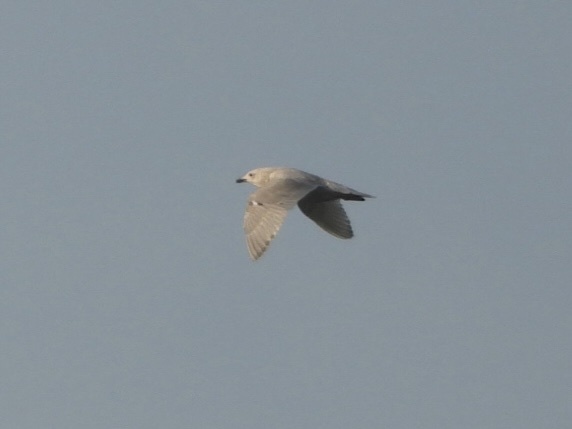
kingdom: Animalia
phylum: Chordata
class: Aves
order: Charadriiformes
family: Laridae
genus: Larus
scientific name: Larus glaucoides
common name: Iceland gull
